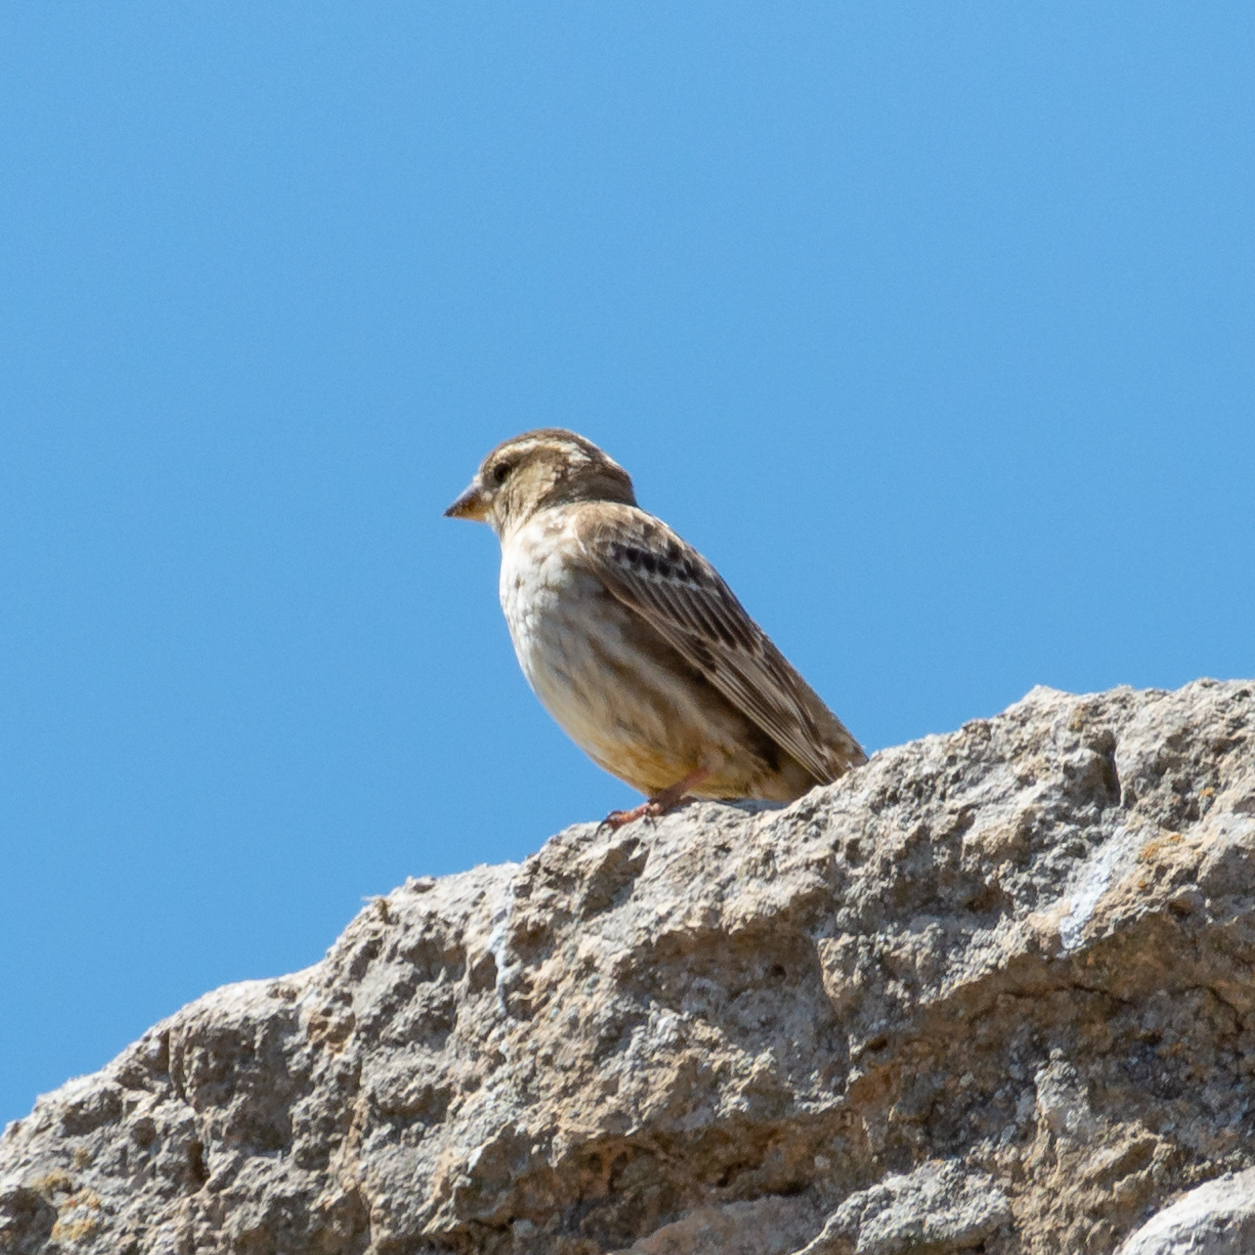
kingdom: Animalia
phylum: Chordata
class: Aves
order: Passeriformes
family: Passeridae
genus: Petronia
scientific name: Petronia petronia
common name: Rock sparrow
